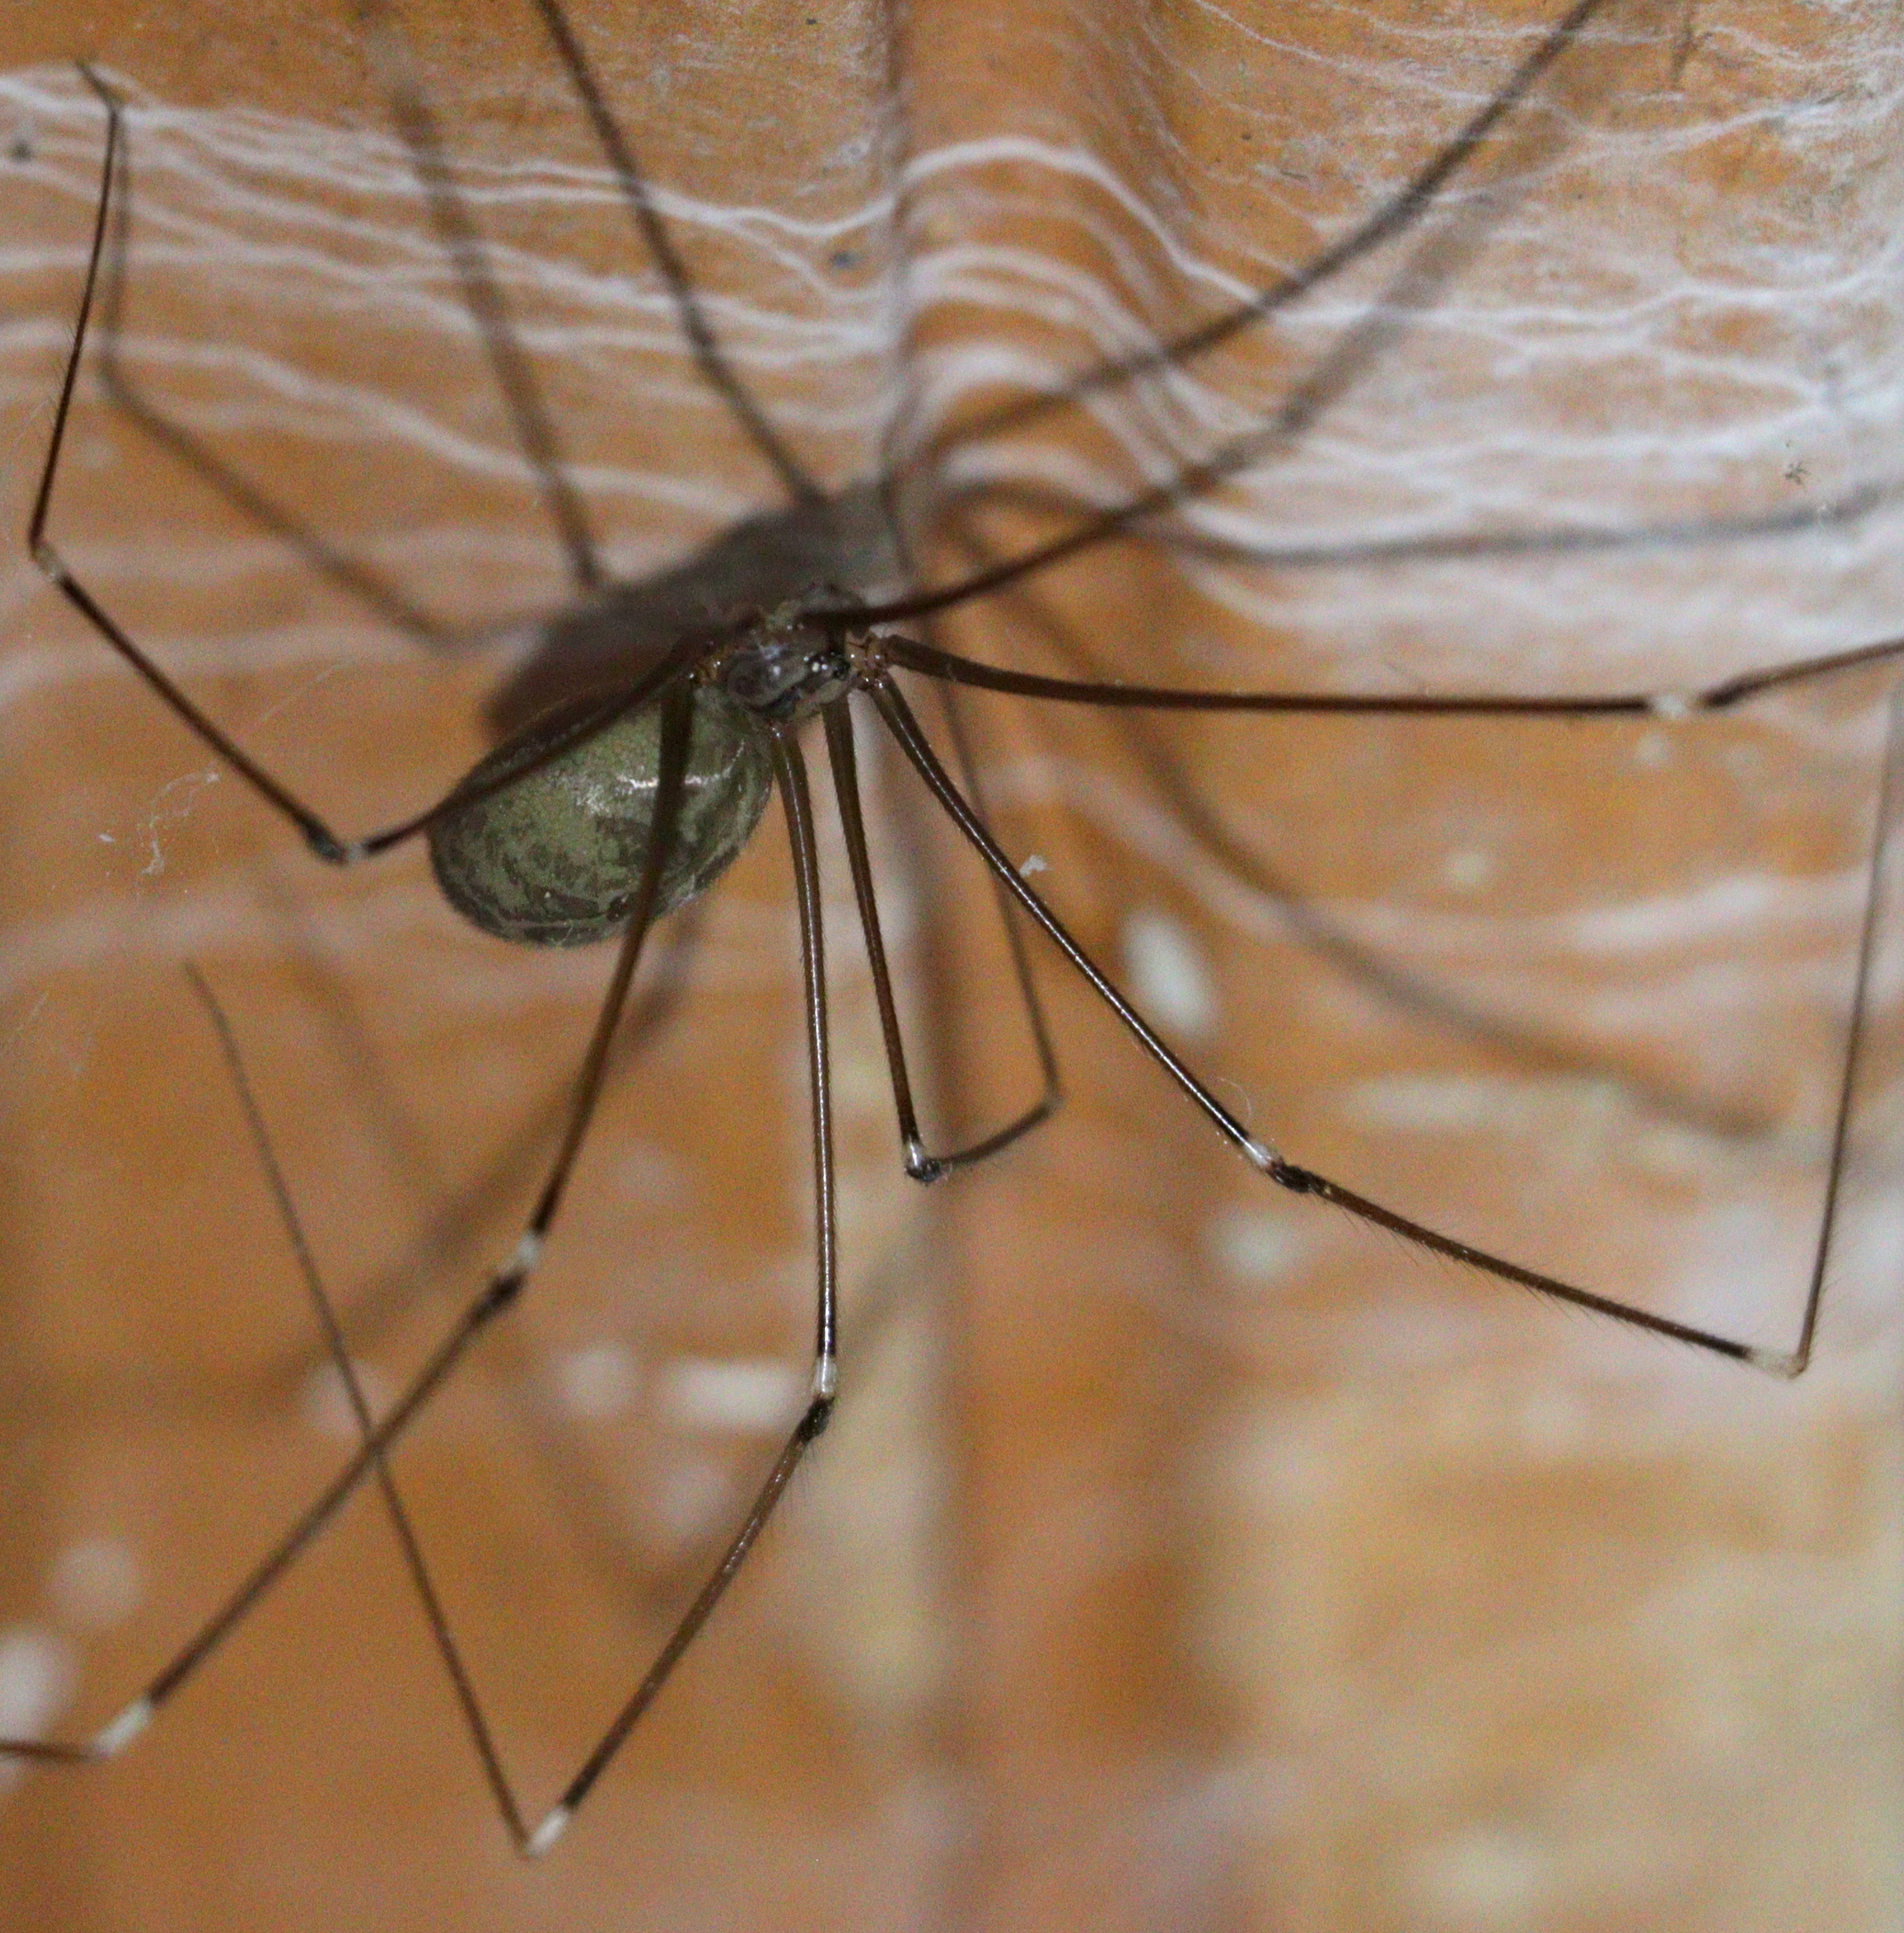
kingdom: Animalia
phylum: Arthropoda
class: Arachnida
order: Araneae
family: Pholcidae
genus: Smeringopus
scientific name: Smeringopus pallidus
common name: Cellar spider
